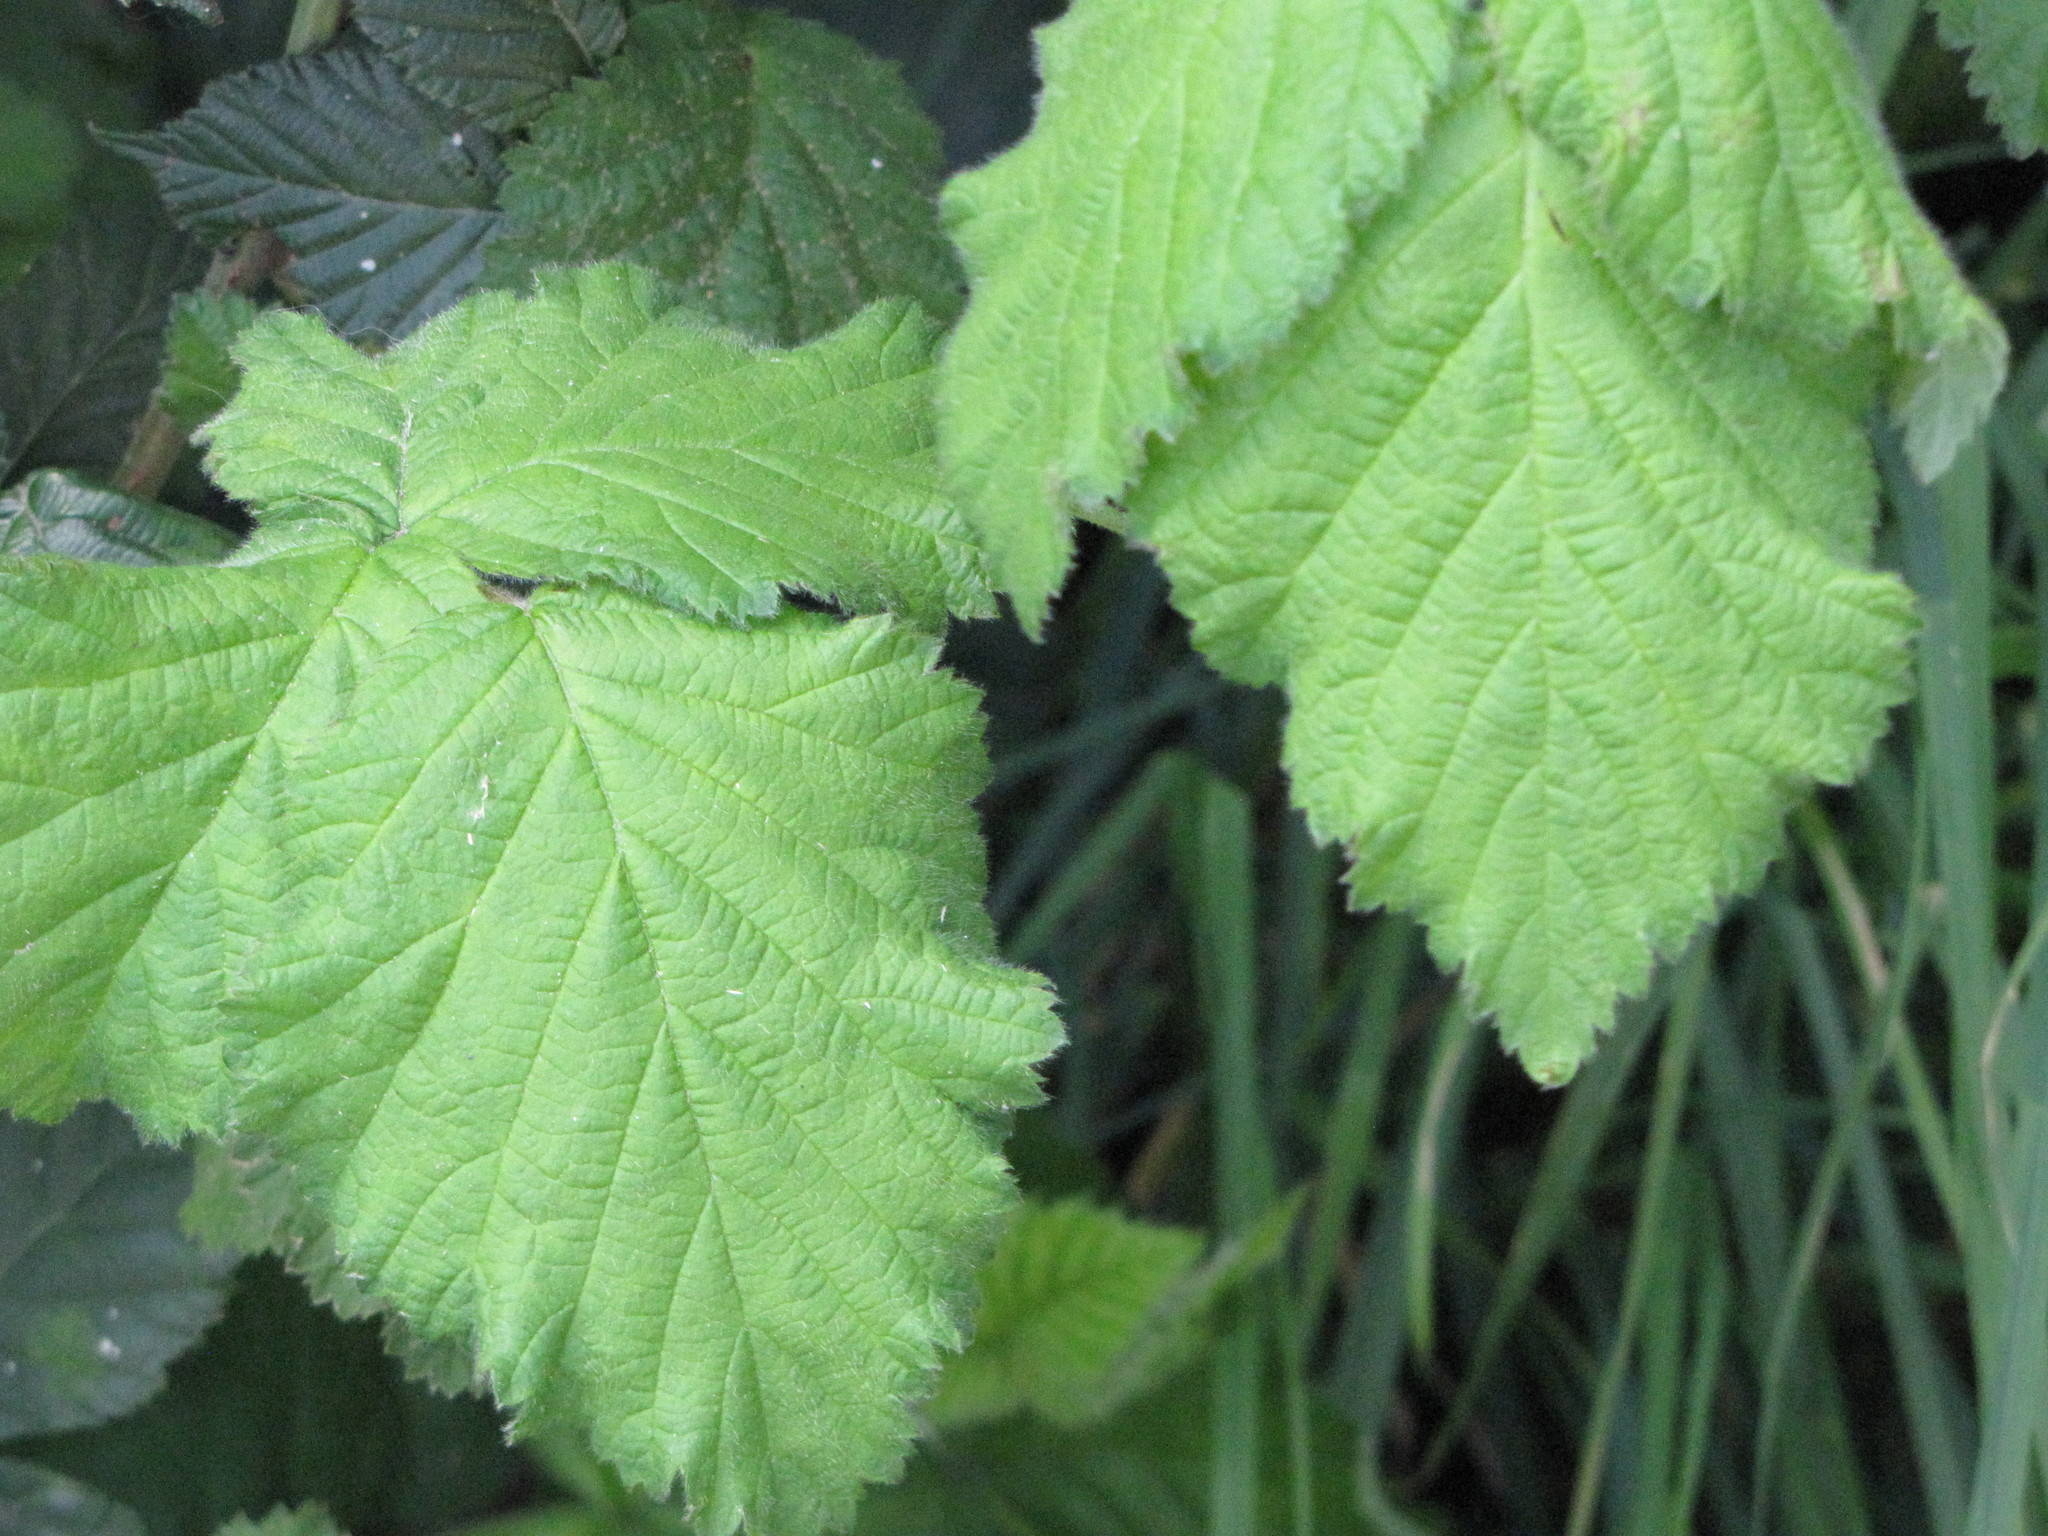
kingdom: Plantae
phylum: Tracheophyta
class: Magnoliopsida
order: Rosales
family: Rosaceae
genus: Rubus
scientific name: Rubus armeniacus
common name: Himalayan blackberry
